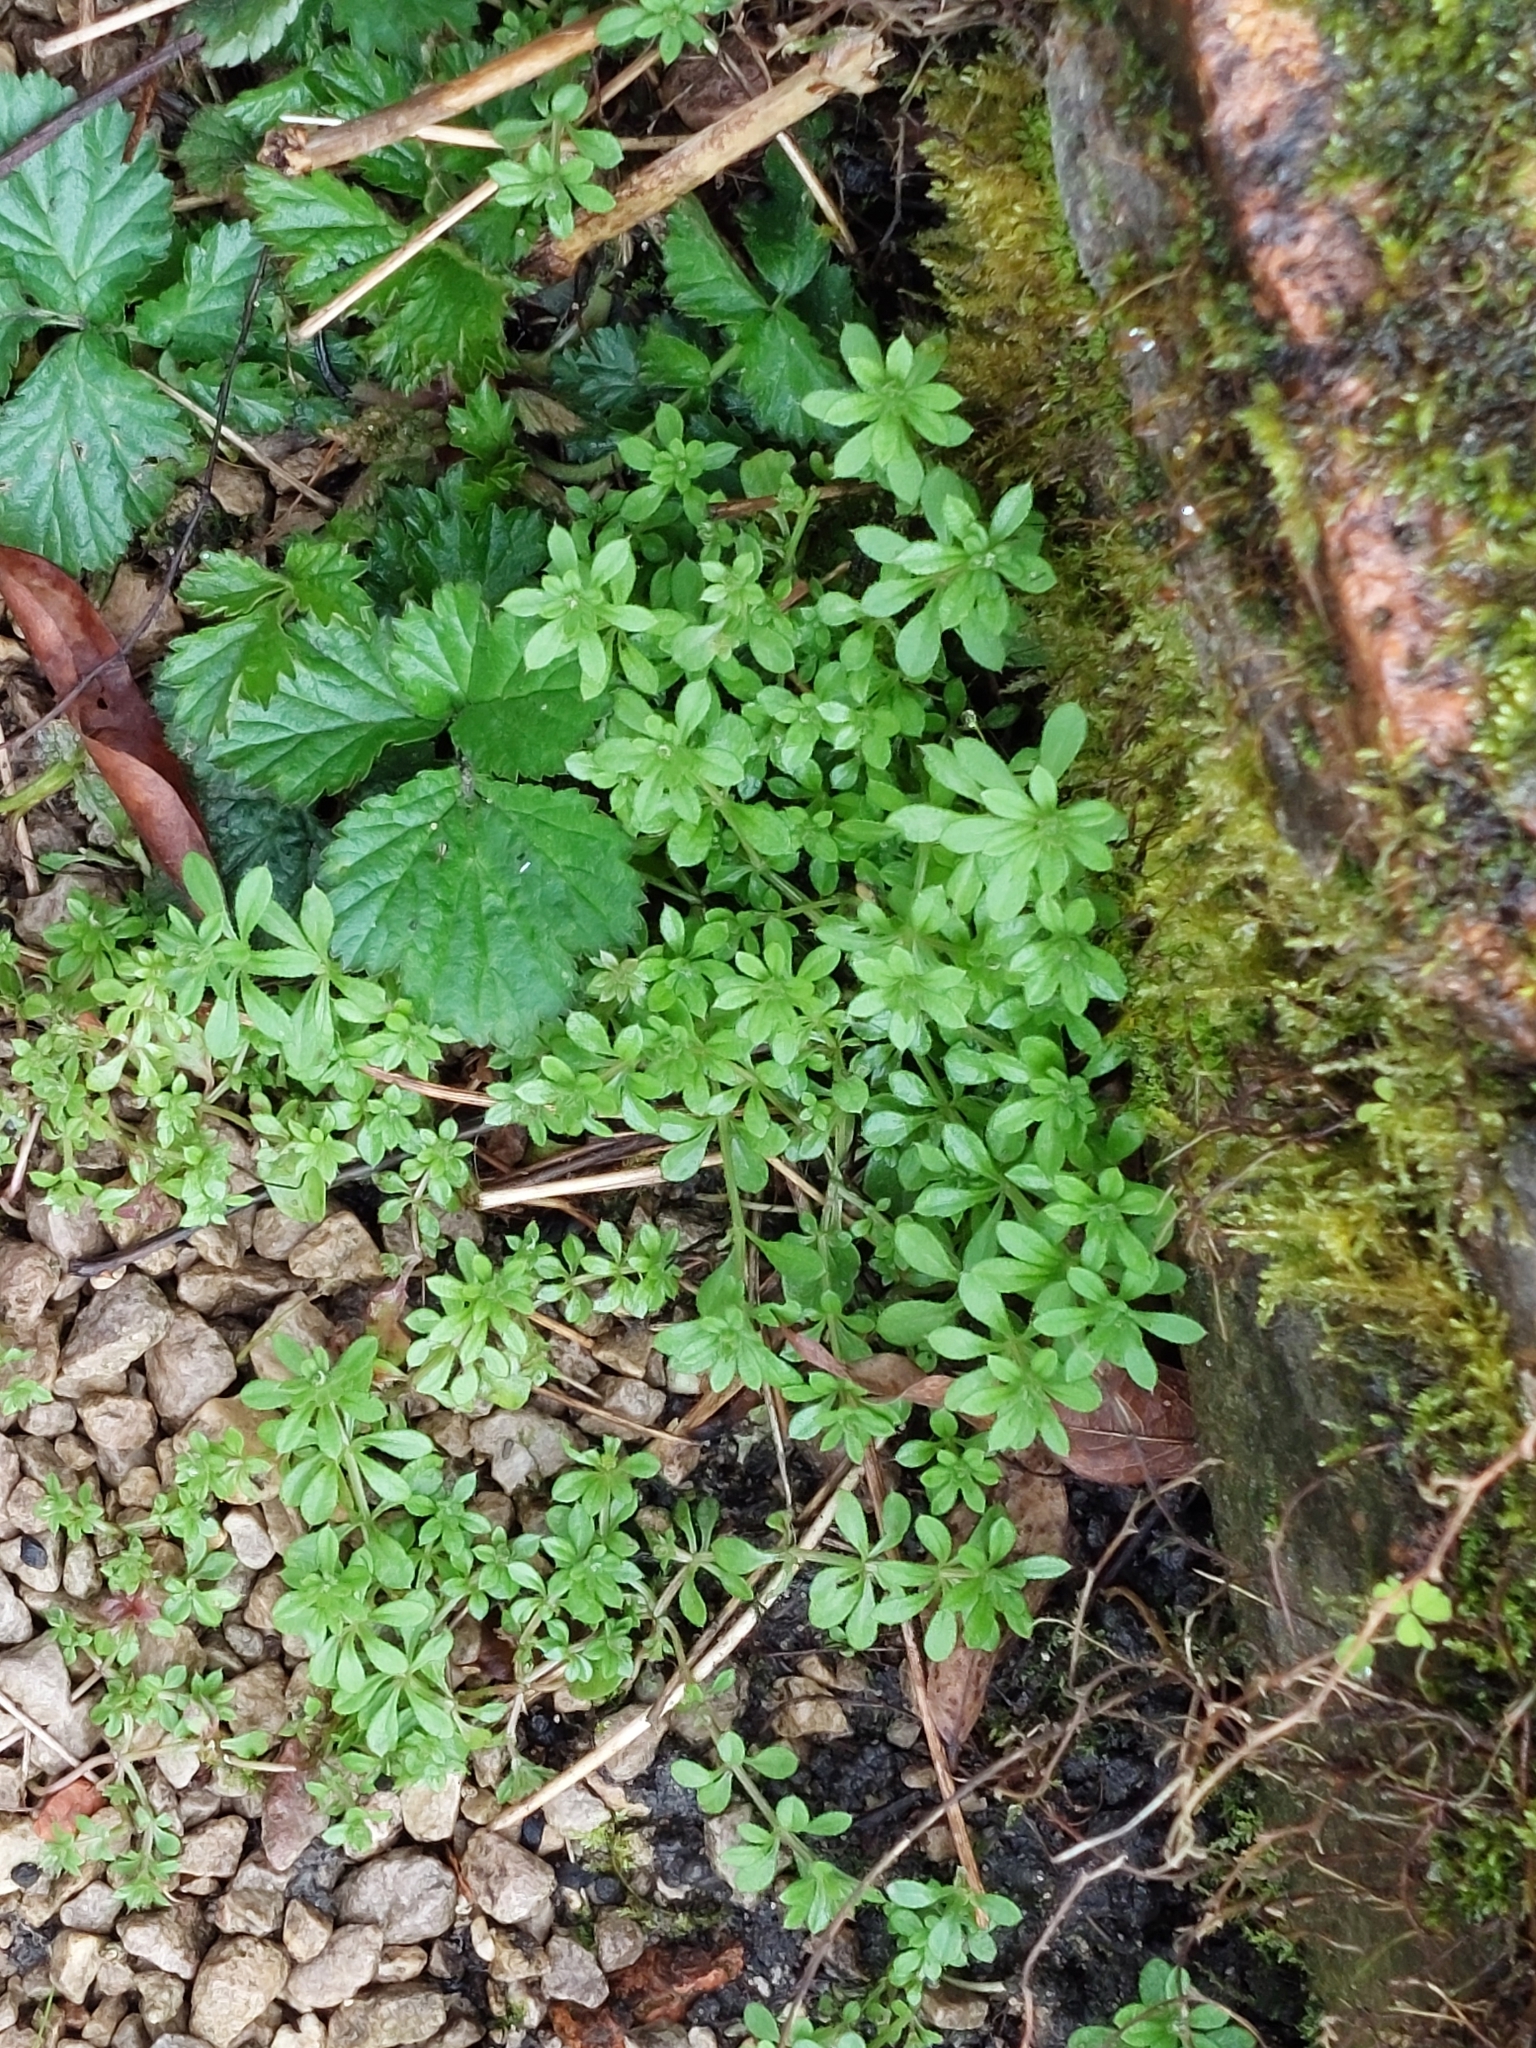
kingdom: Plantae
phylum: Tracheophyta
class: Magnoliopsida
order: Gentianales
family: Rubiaceae
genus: Galium
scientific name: Galium aparine
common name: Cleavers
